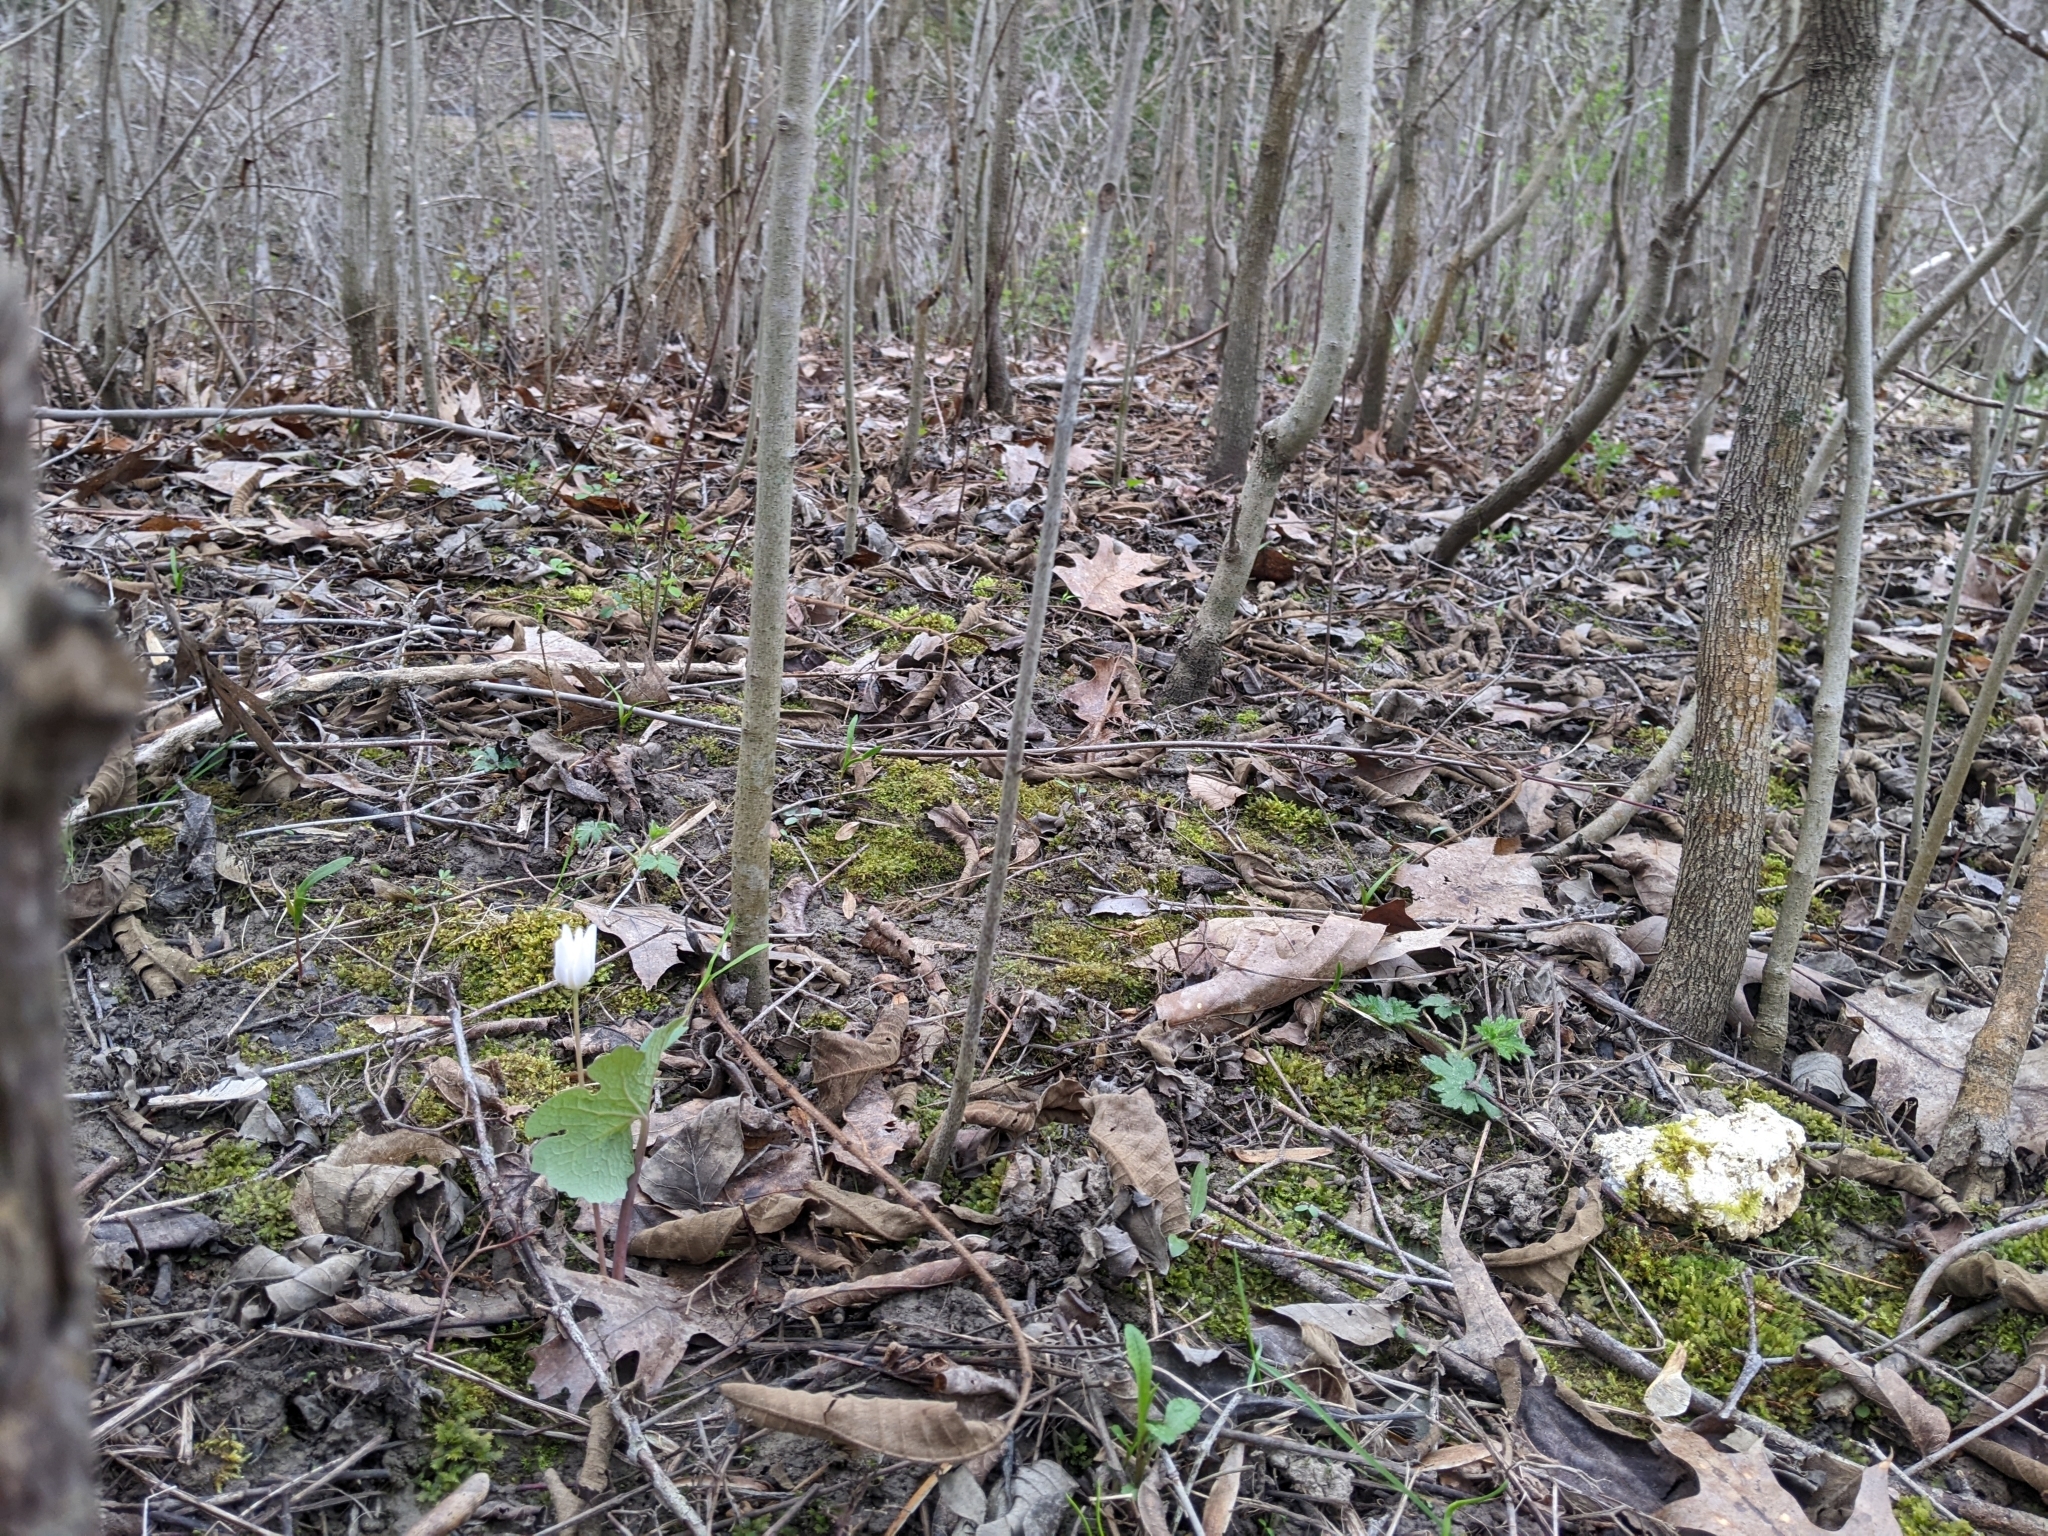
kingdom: Plantae
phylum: Tracheophyta
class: Magnoliopsida
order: Ranunculales
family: Papaveraceae
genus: Sanguinaria
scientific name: Sanguinaria canadensis
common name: Bloodroot
